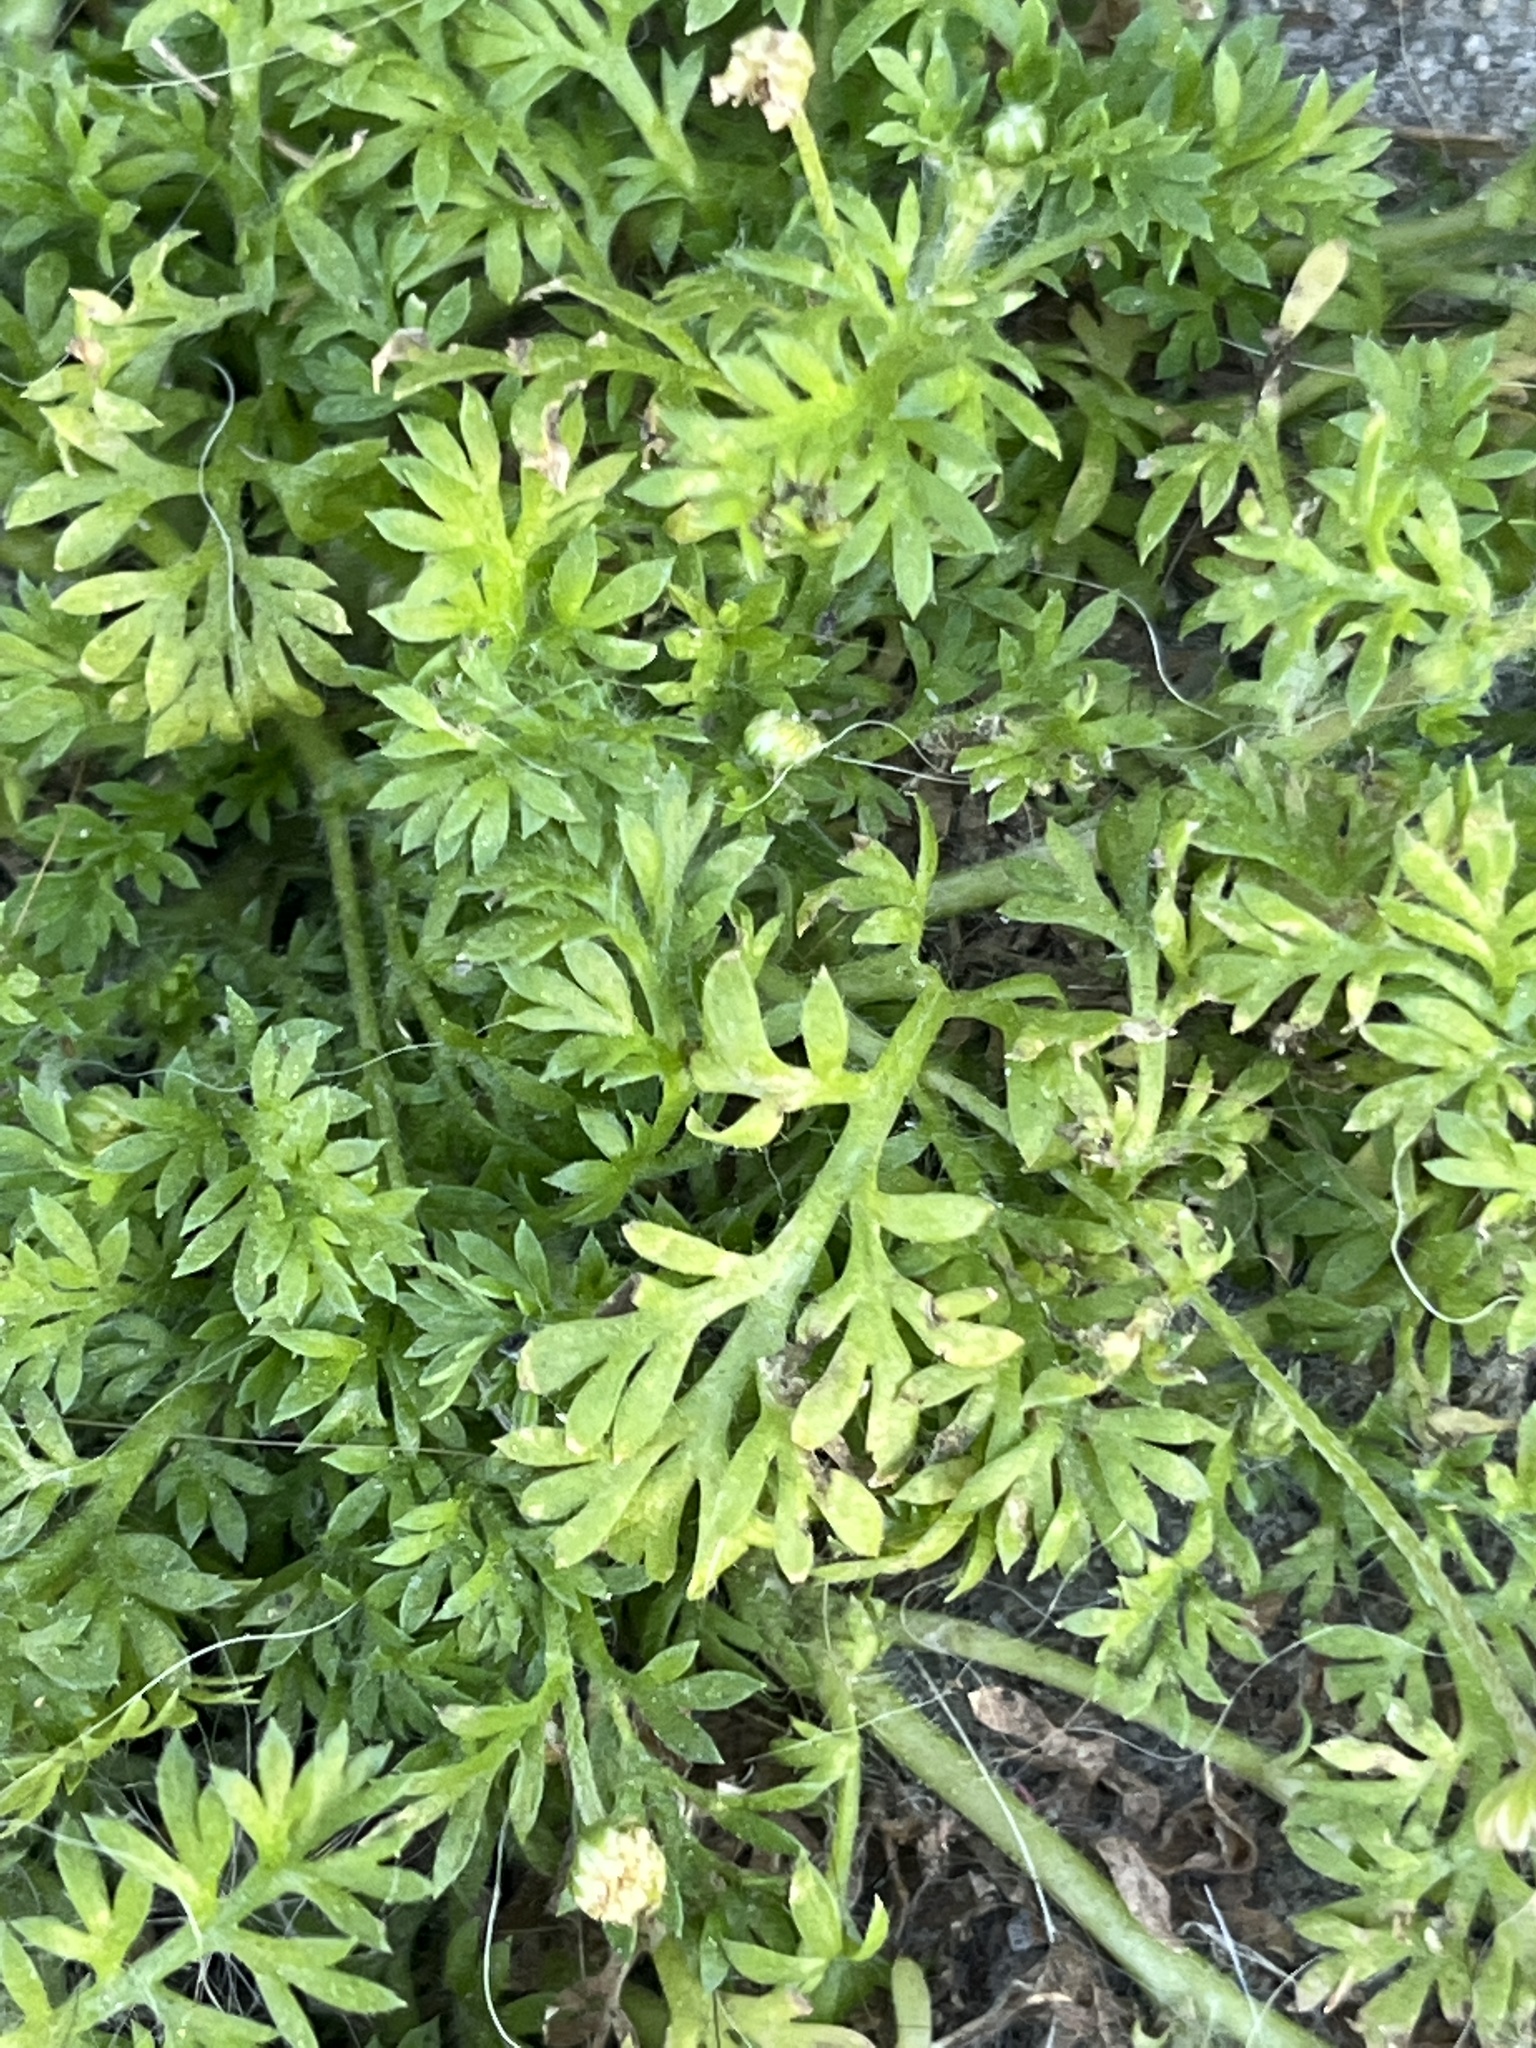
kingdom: Plantae
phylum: Tracheophyta
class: Magnoliopsida
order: Asterales
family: Asteraceae
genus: Cotula
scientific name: Cotula australis
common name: Australian waterbuttons
